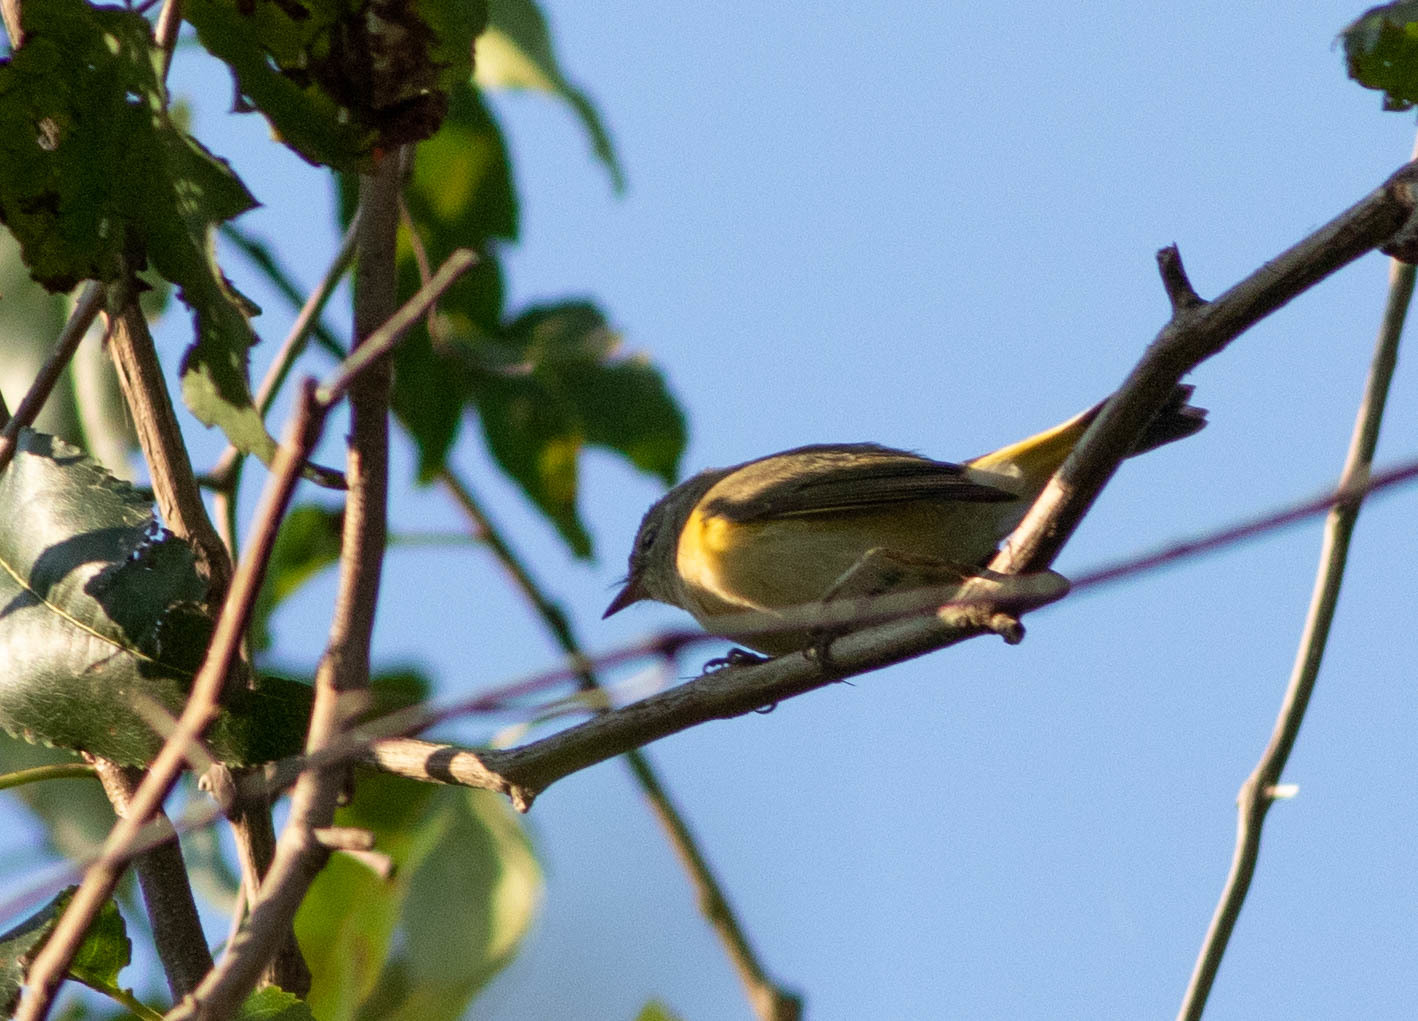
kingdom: Animalia
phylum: Chordata
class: Aves
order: Passeriformes
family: Parulidae
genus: Setophaga
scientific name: Setophaga ruticilla
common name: American redstart
